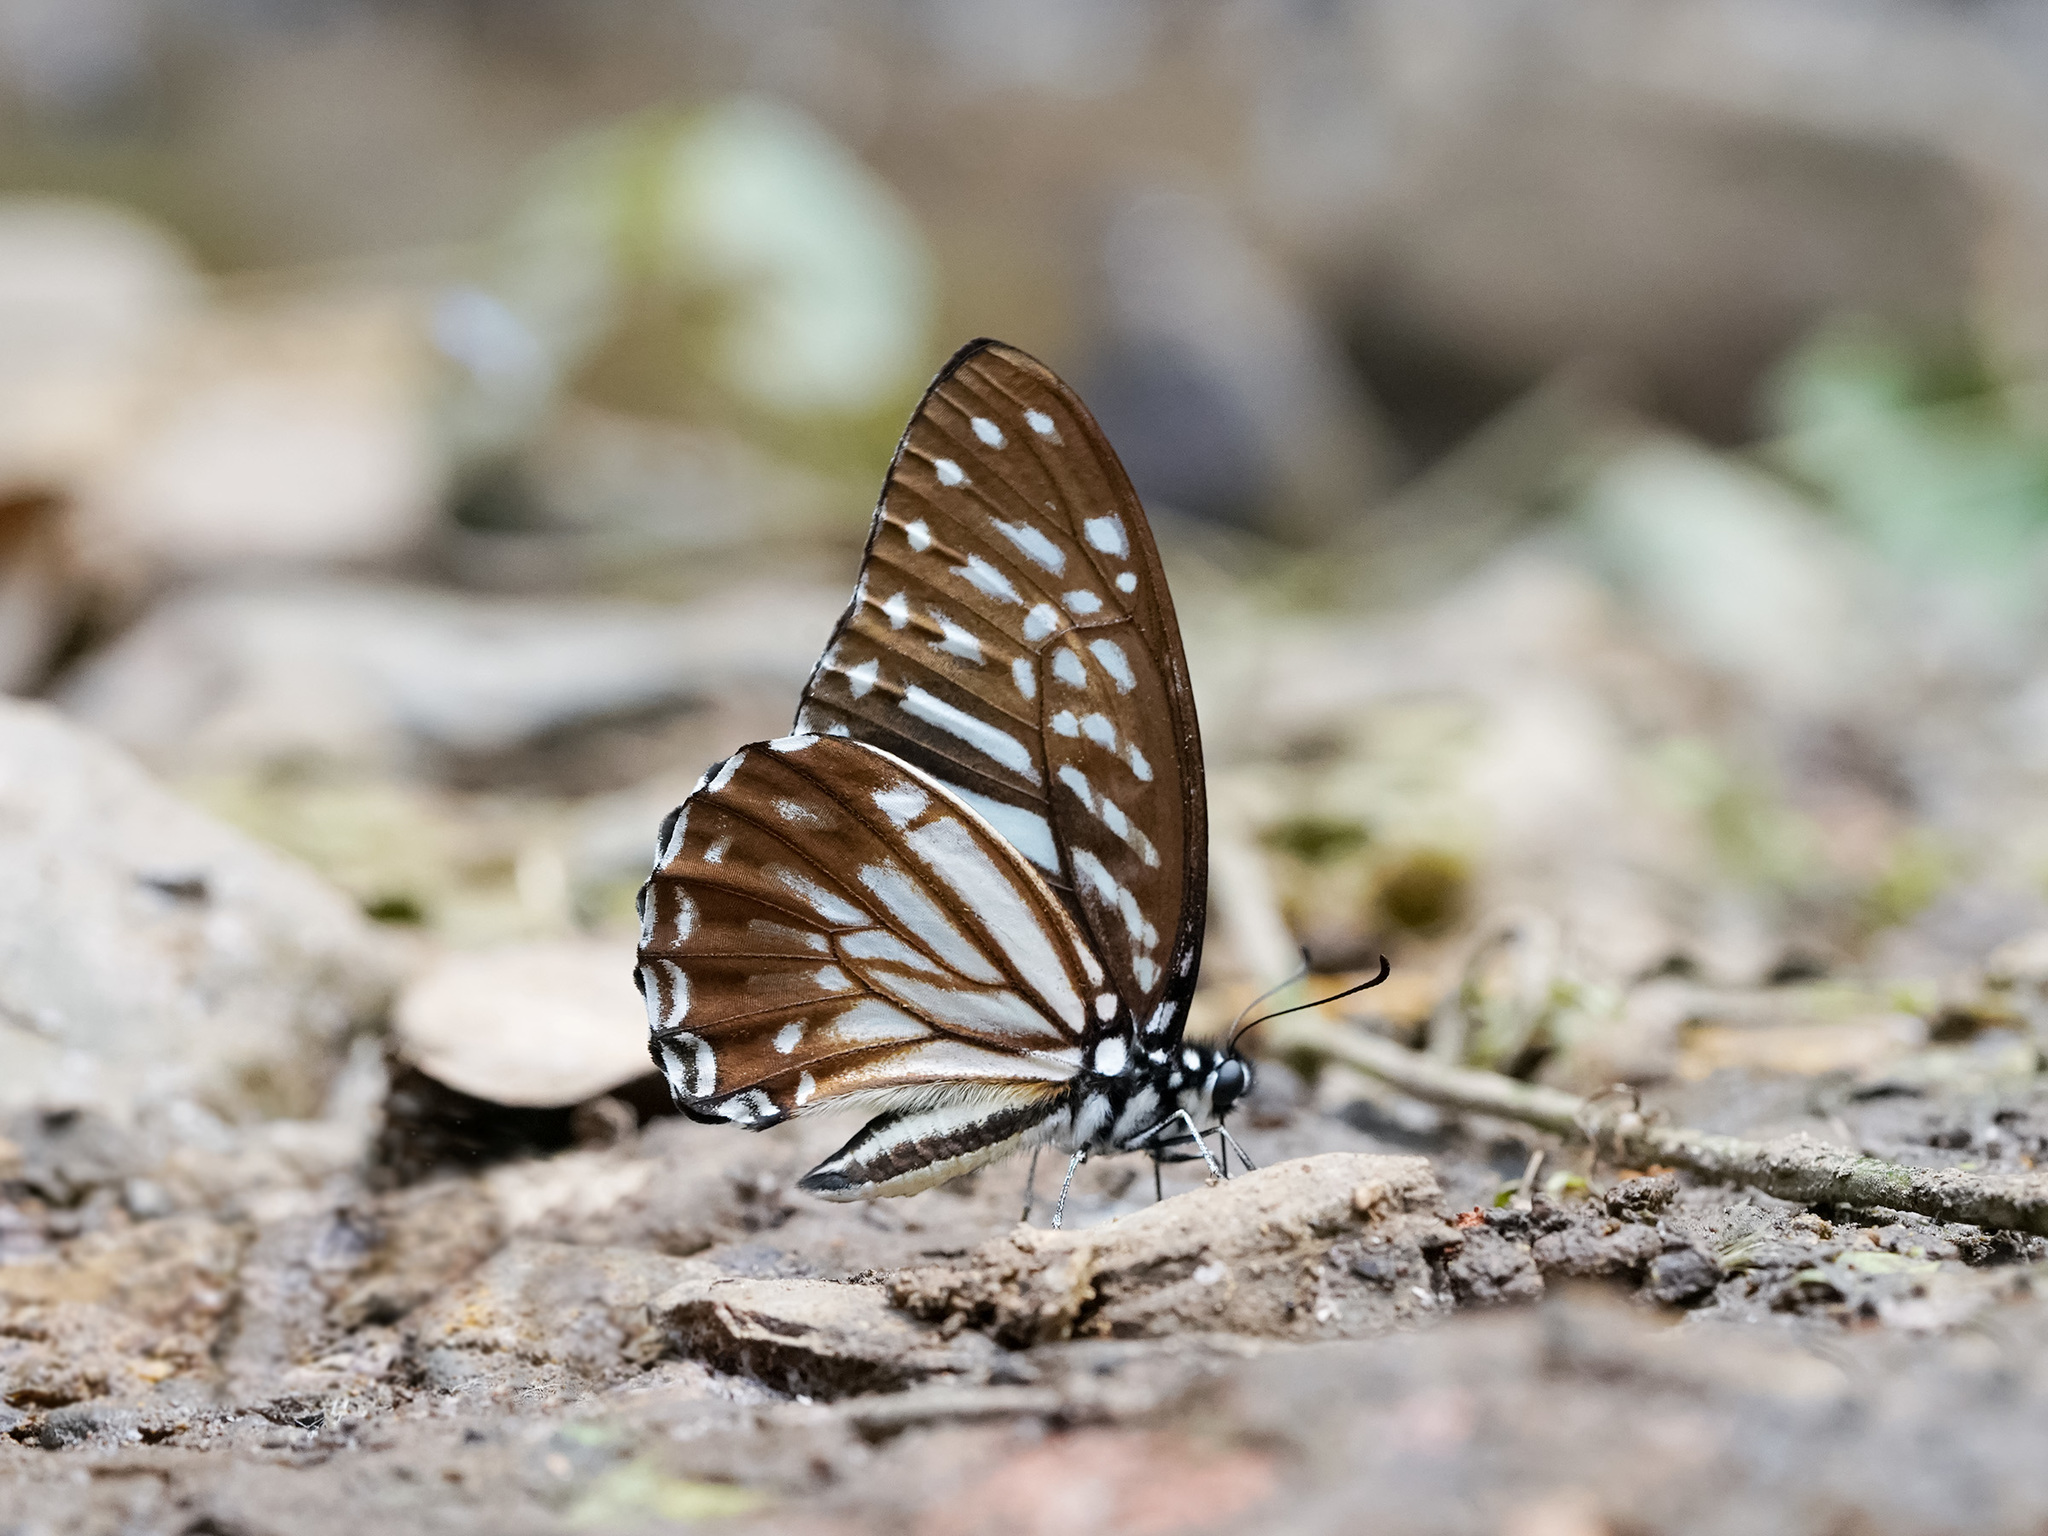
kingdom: Animalia
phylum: Arthropoda
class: Insecta
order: Lepidoptera
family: Papilionidae
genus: Graphium
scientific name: Graphium macareus
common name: Lesser zebra
